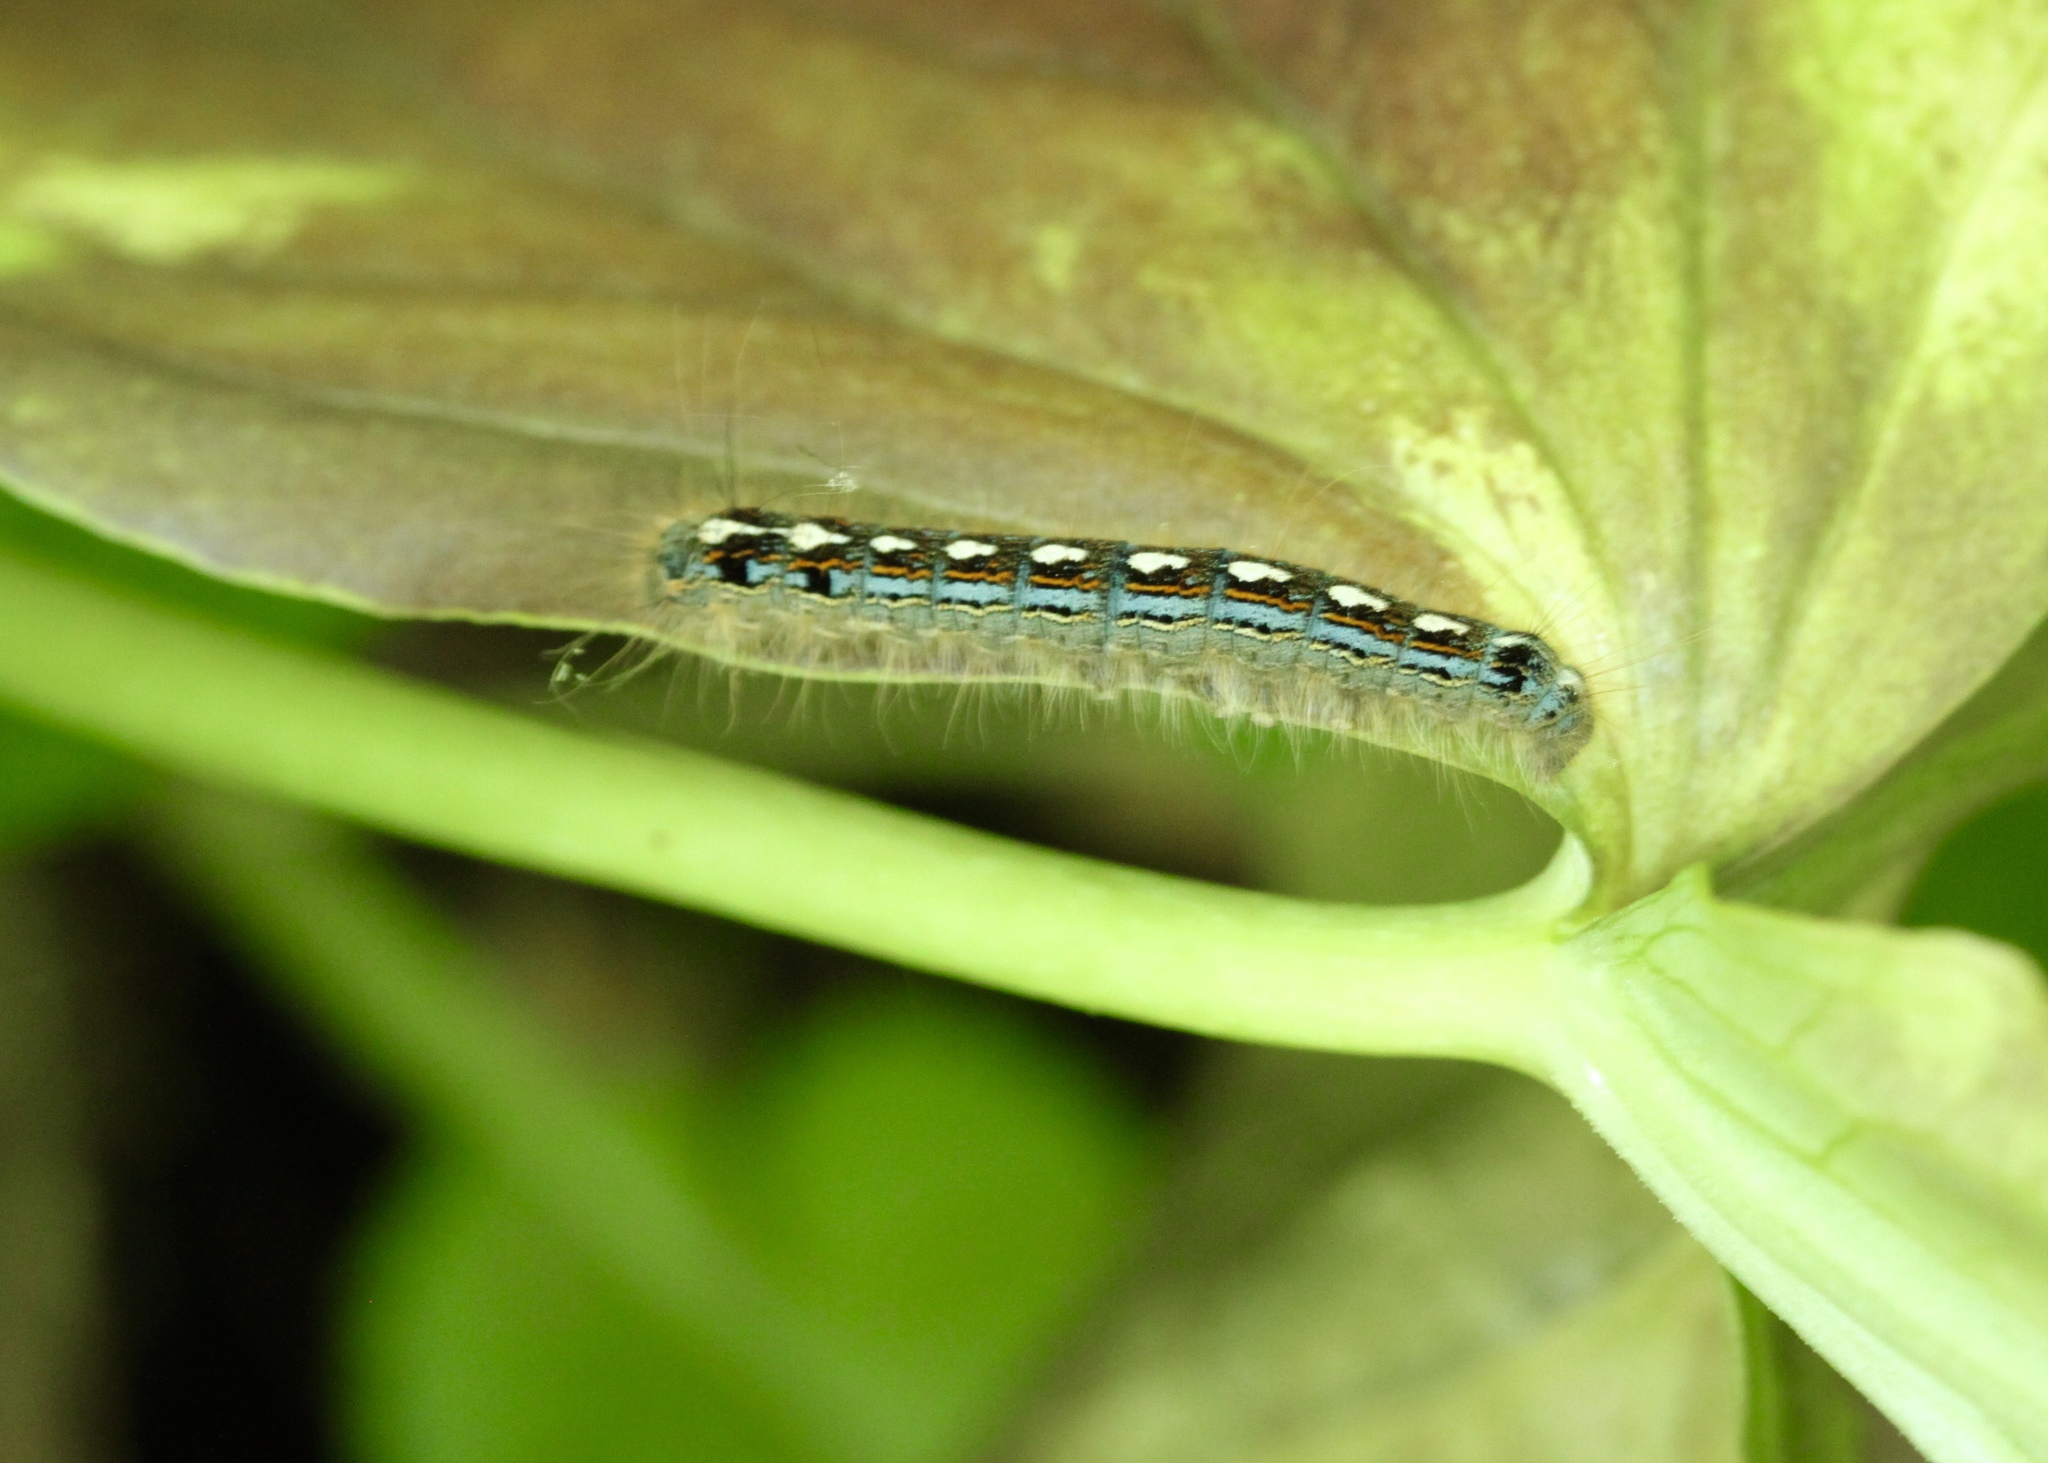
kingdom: Animalia
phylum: Arthropoda
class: Insecta
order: Lepidoptera
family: Lasiocampidae
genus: Malacosoma
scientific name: Malacosoma disstria
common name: Forest tent caterpillar
